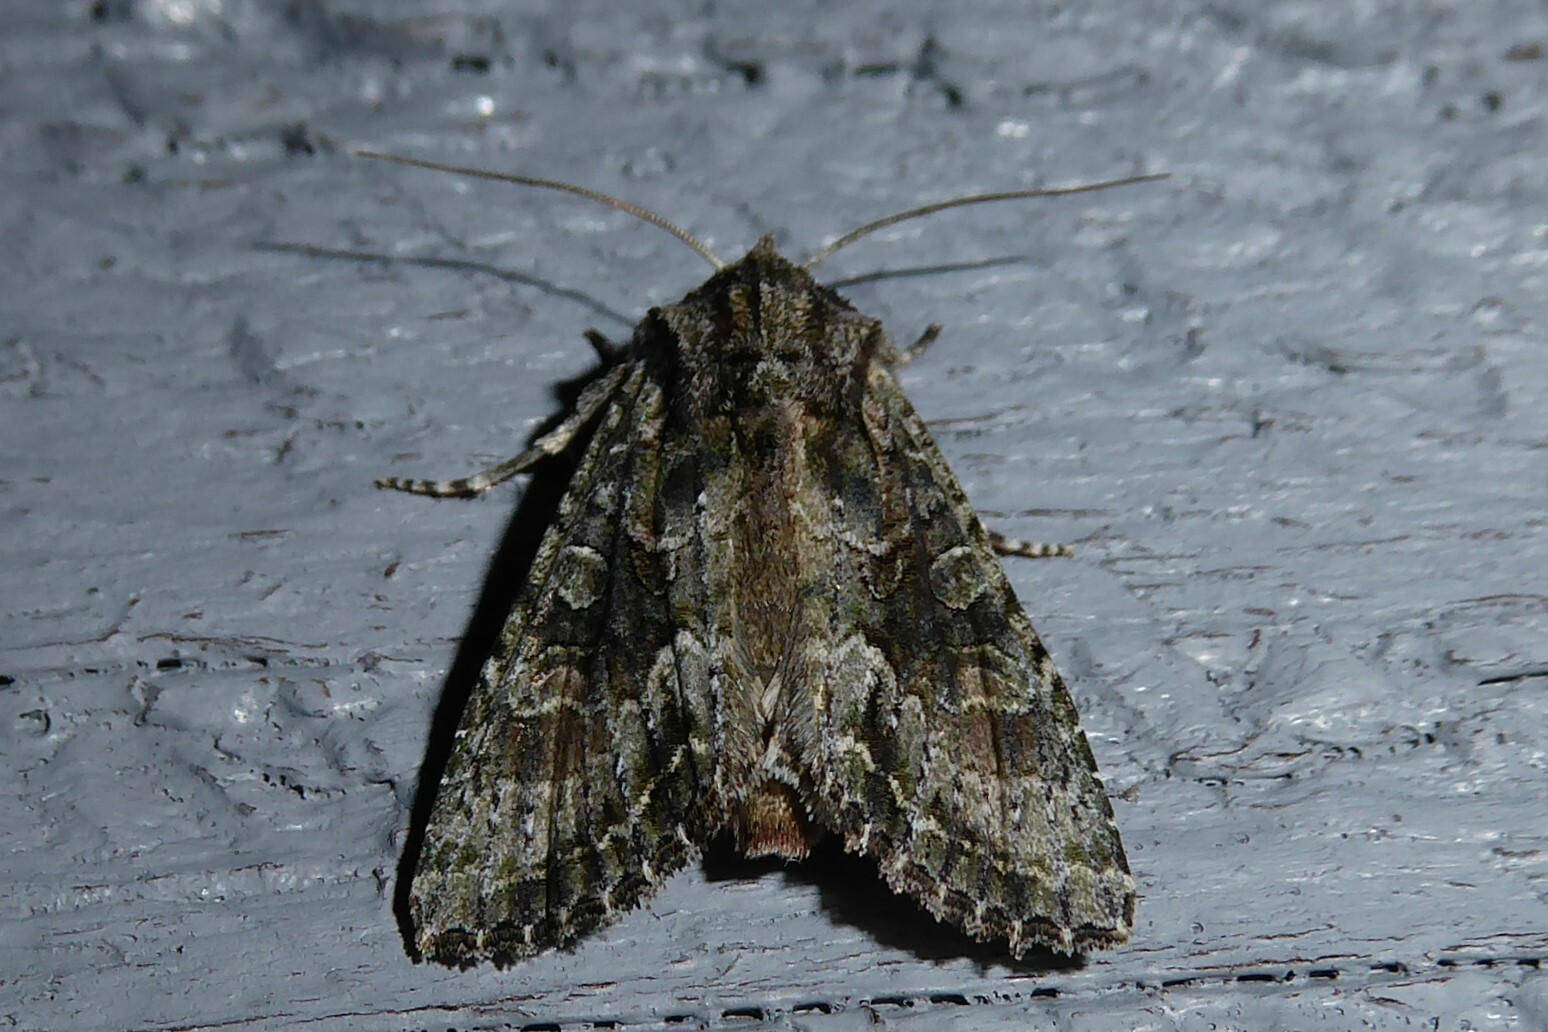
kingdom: Animalia
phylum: Arthropoda
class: Insecta
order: Lepidoptera
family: Noctuidae
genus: Ichneutica
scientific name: Ichneutica mutans
